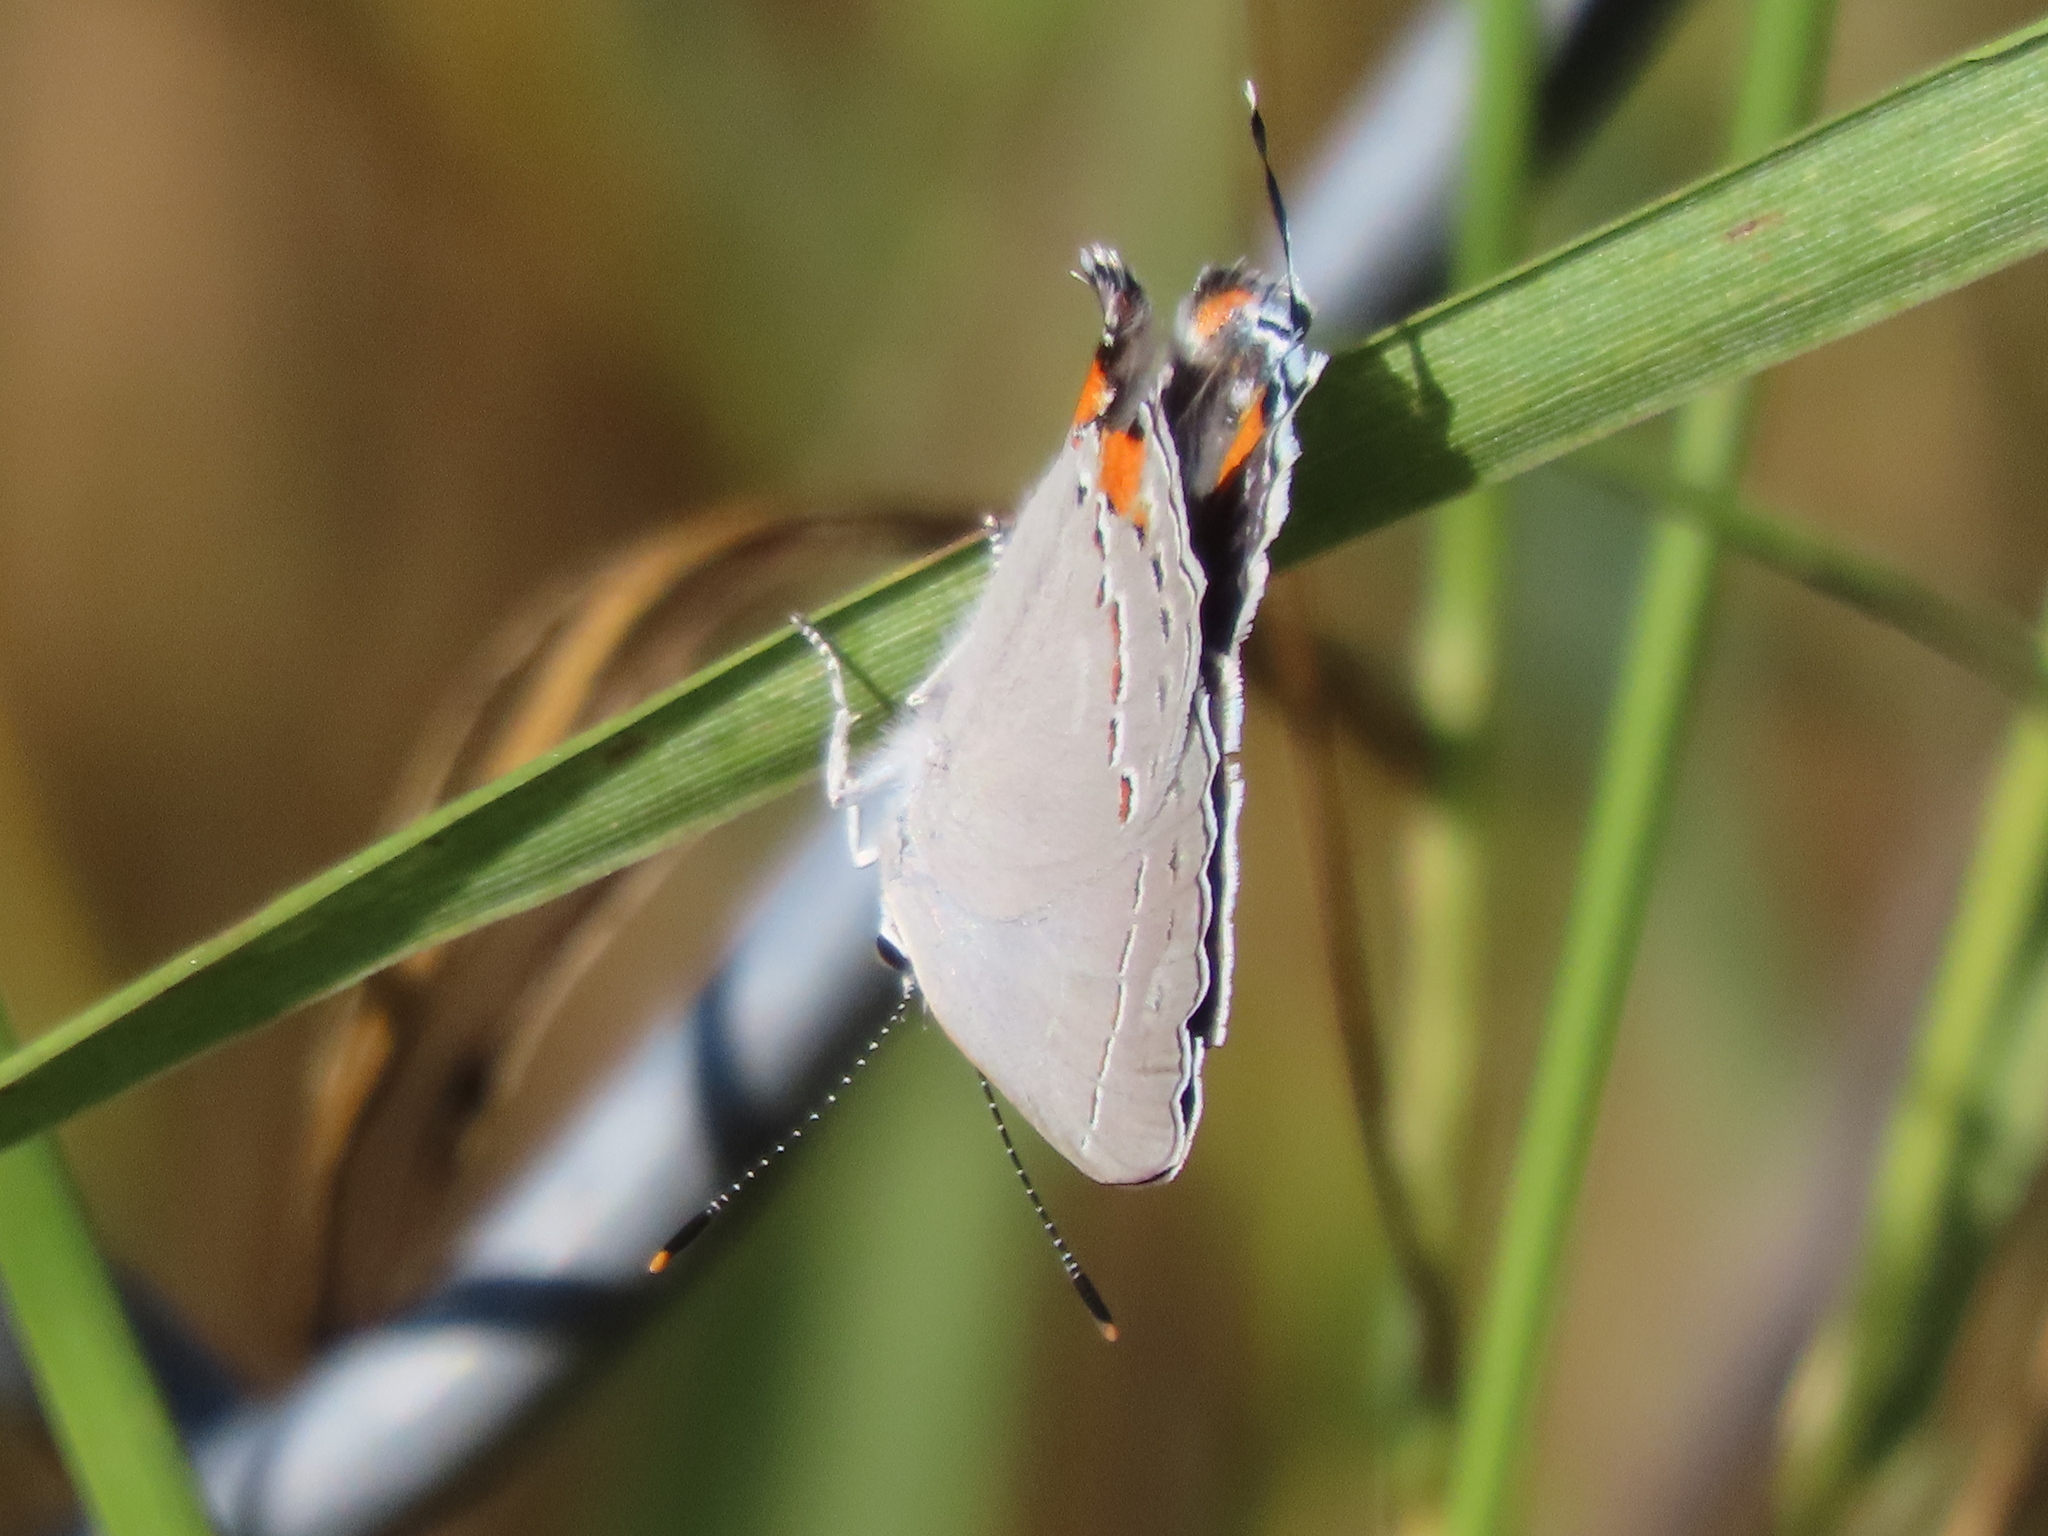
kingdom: Animalia
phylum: Arthropoda
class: Insecta
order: Lepidoptera
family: Lycaenidae
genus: Strymon
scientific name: Strymon melinus
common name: Gray hairstreak
